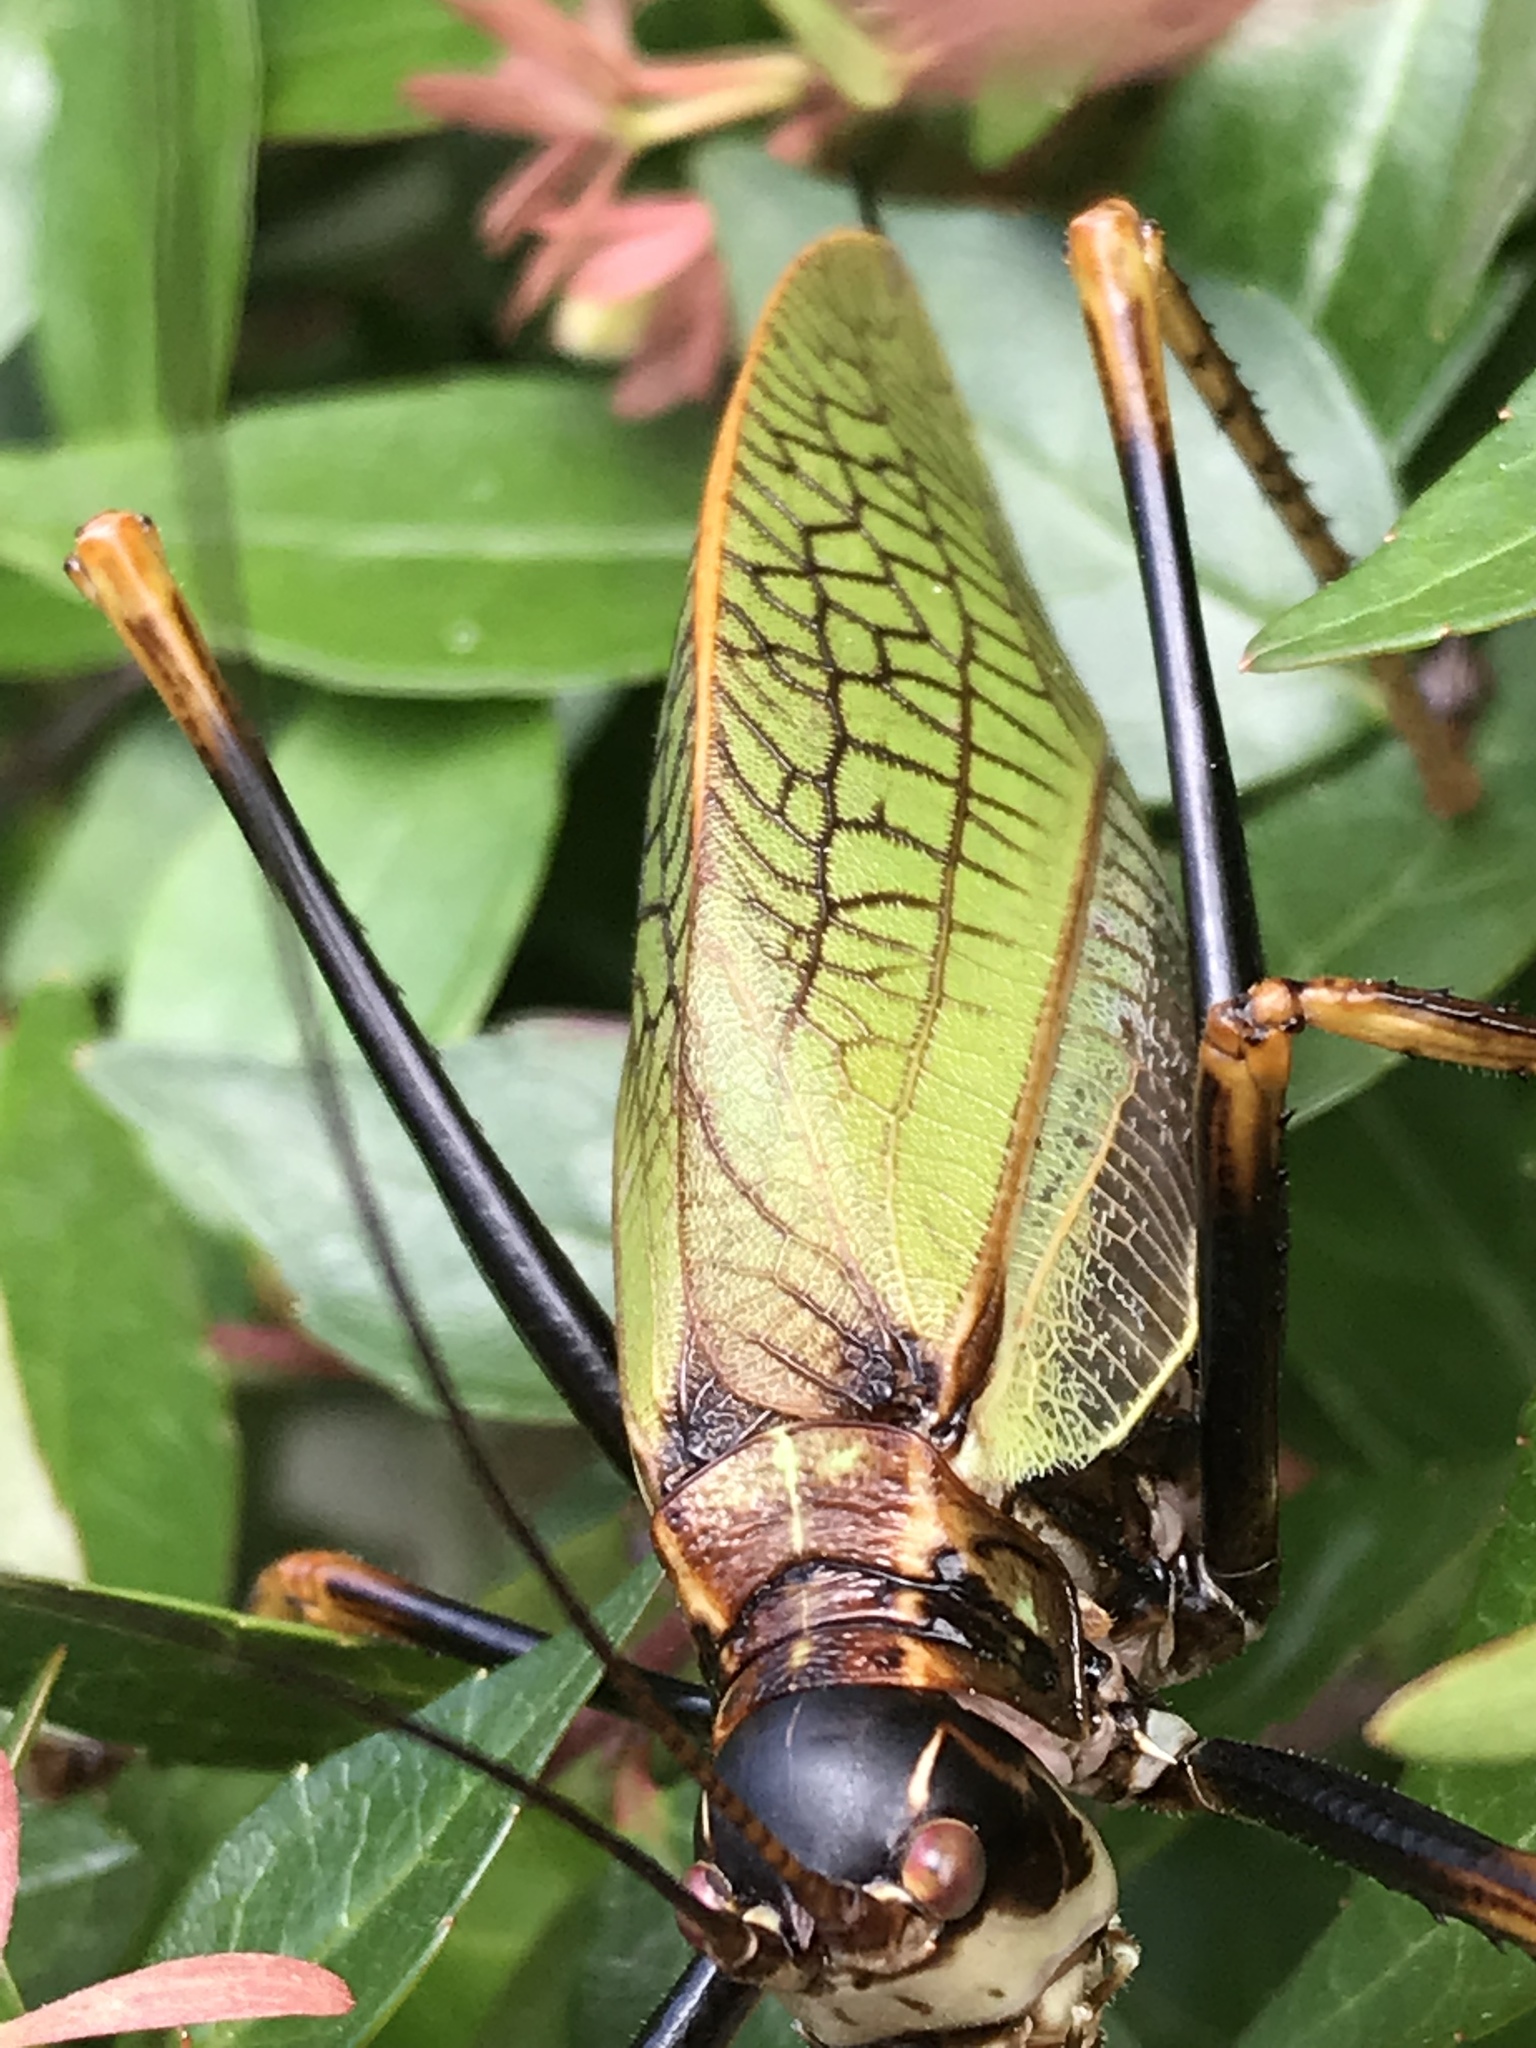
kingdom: Animalia
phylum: Arthropoda
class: Insecta
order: Orthoptera
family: Tettigoniidae
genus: Pterophylla
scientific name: Pterophylla beltrani
